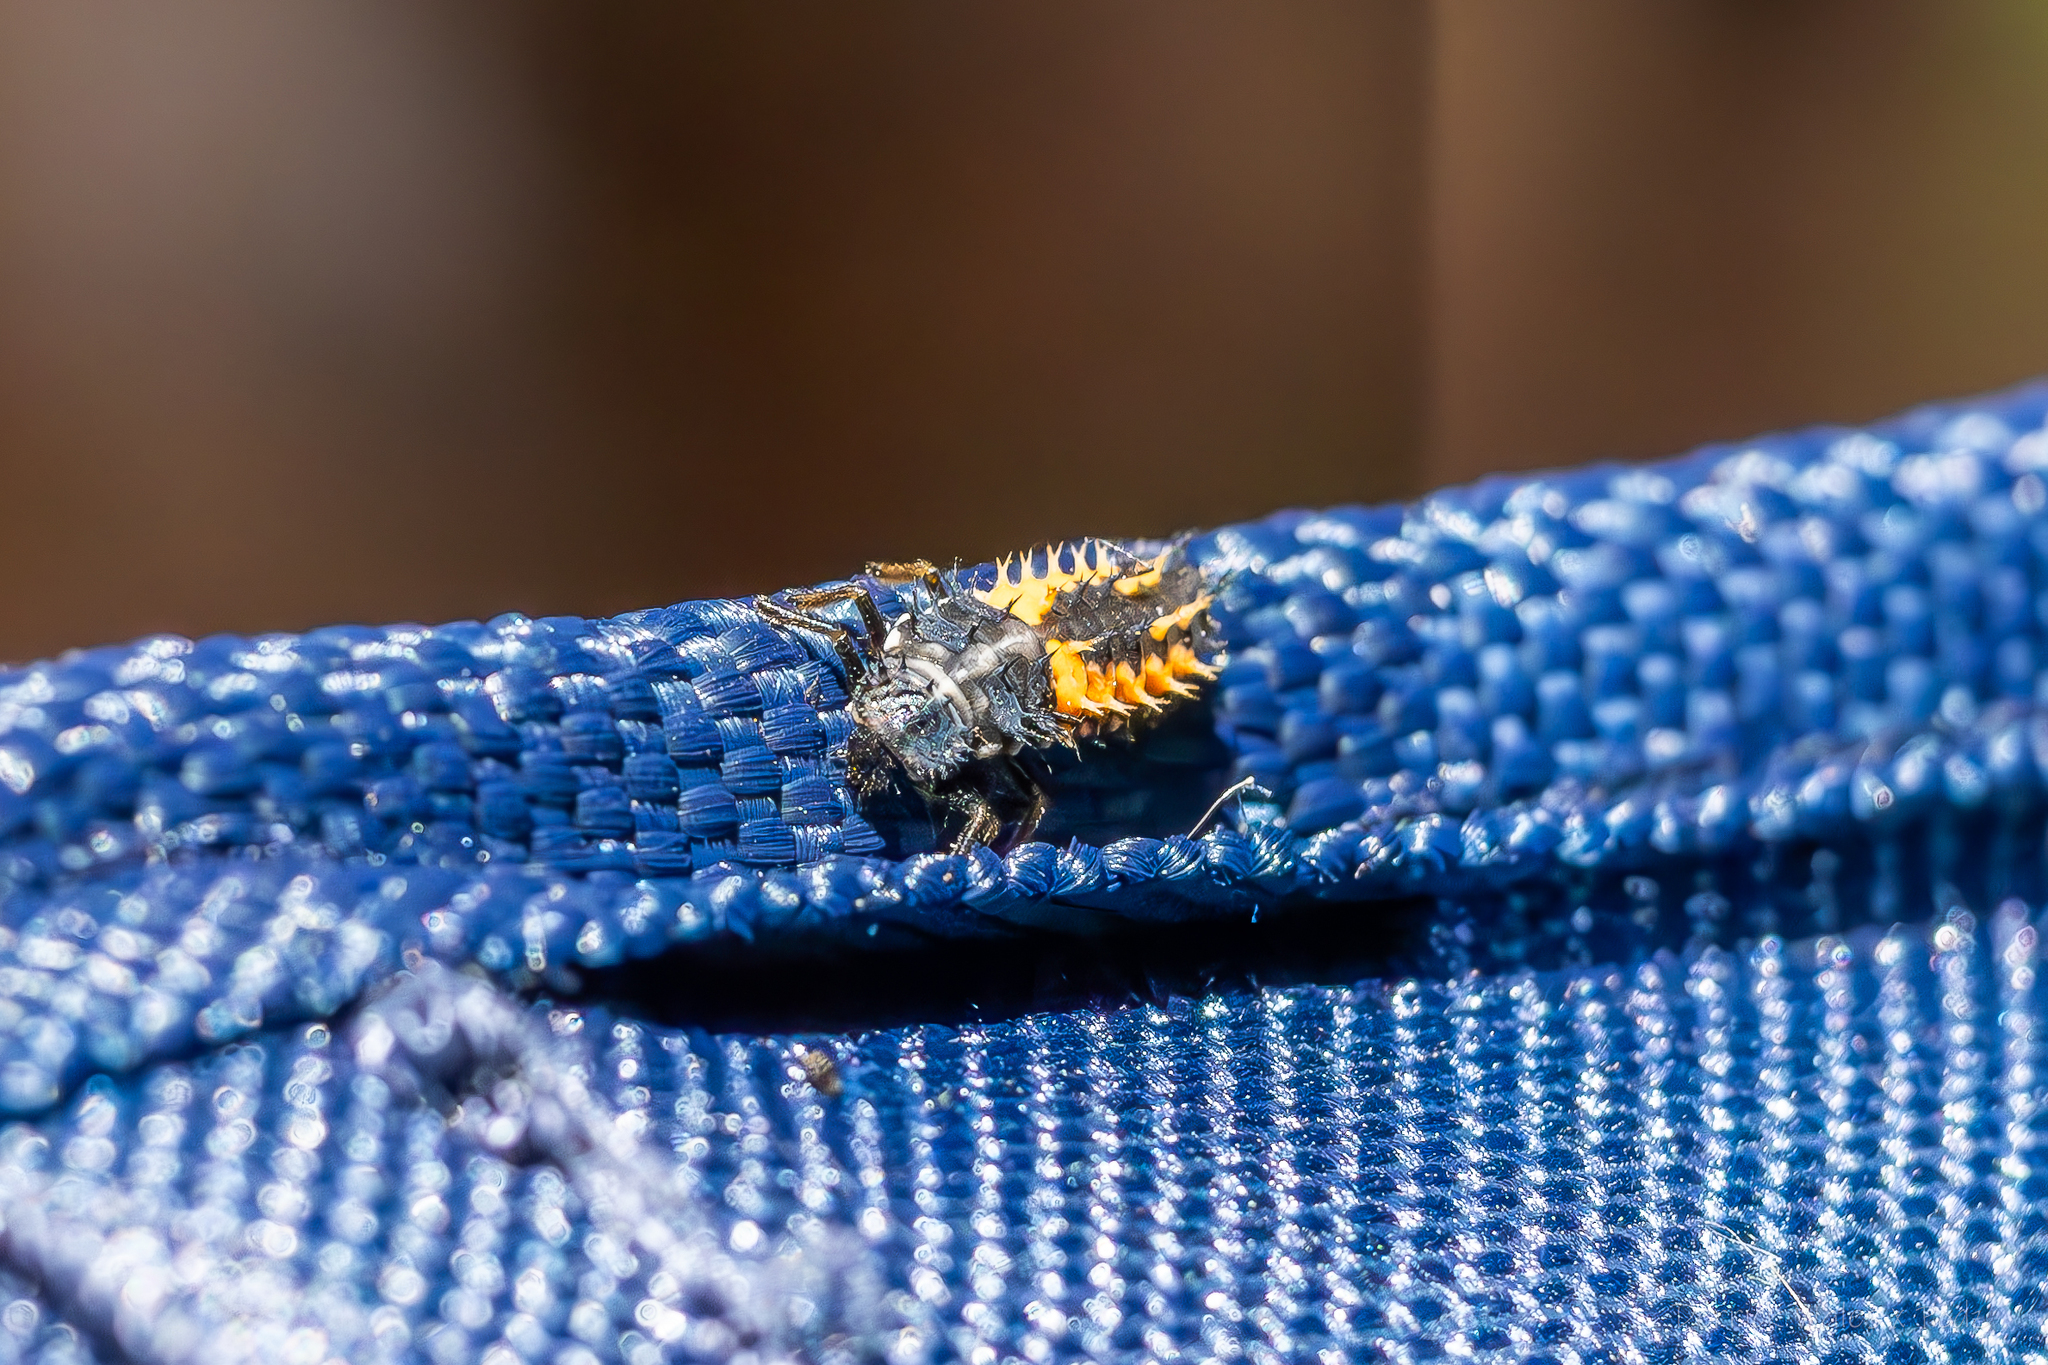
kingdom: Animalia
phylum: Arthropoda
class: Insecta
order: Coleoptera
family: Coccinellidae
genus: Harmonia
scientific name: Harmonia axyridis
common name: Harlequin ladybird
